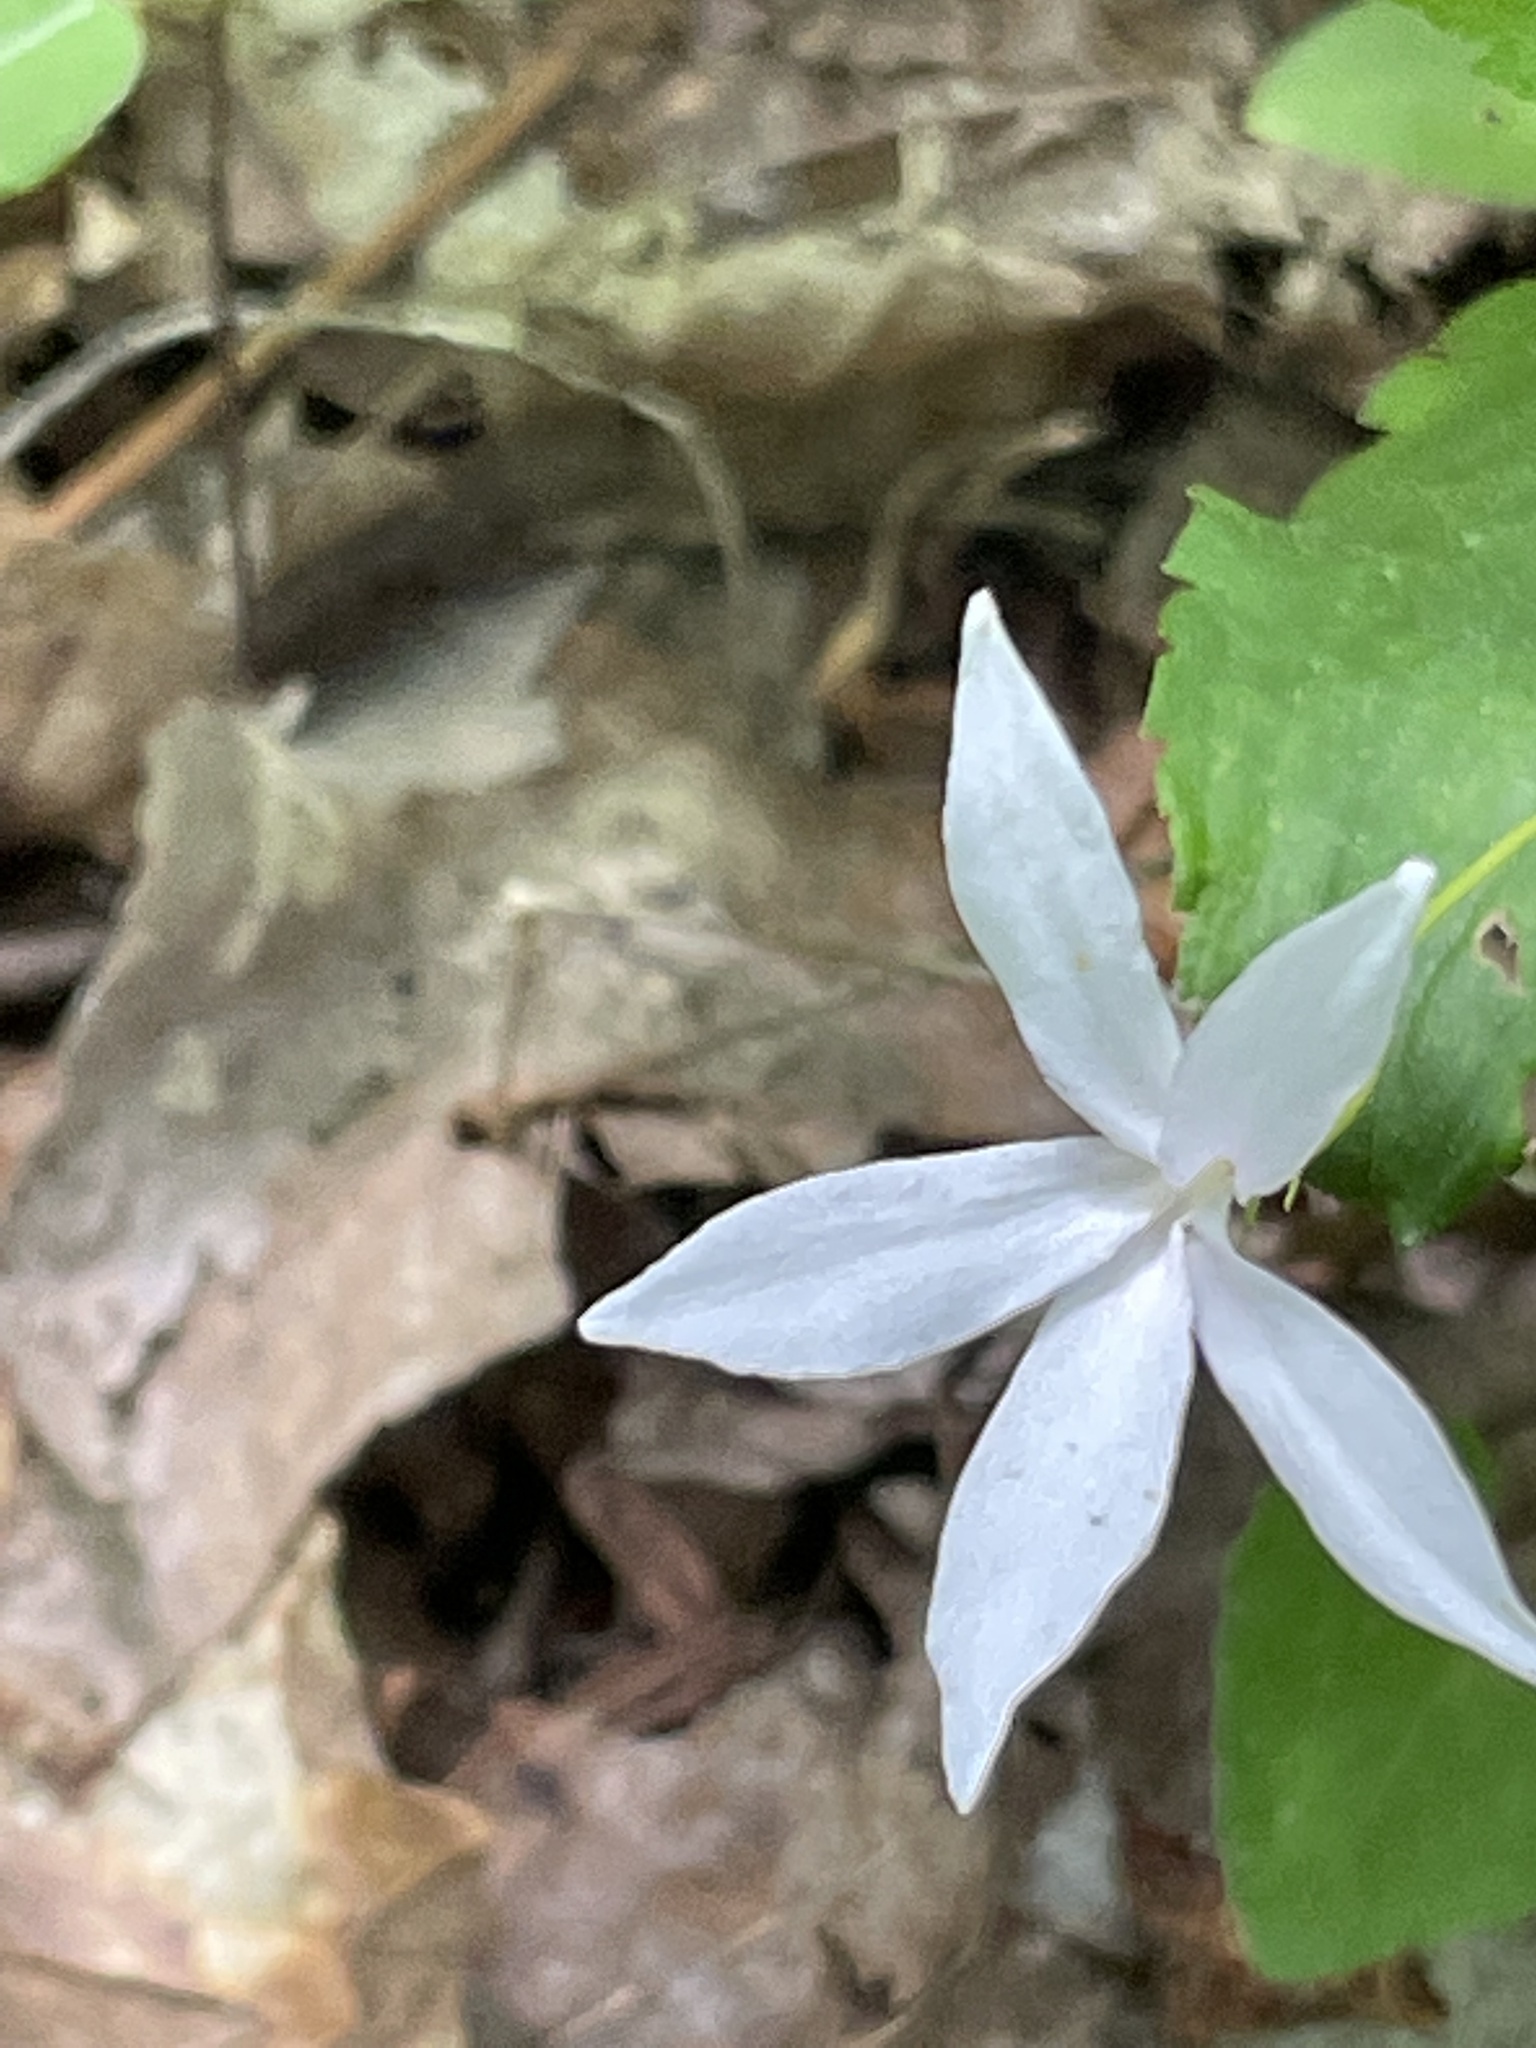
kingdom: Plantae
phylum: Tracheophyta
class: Magnoliopsida
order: Rosales
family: Rosaceae
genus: Gillenia
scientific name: Gillenia trifoliata
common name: Bowman's-root
